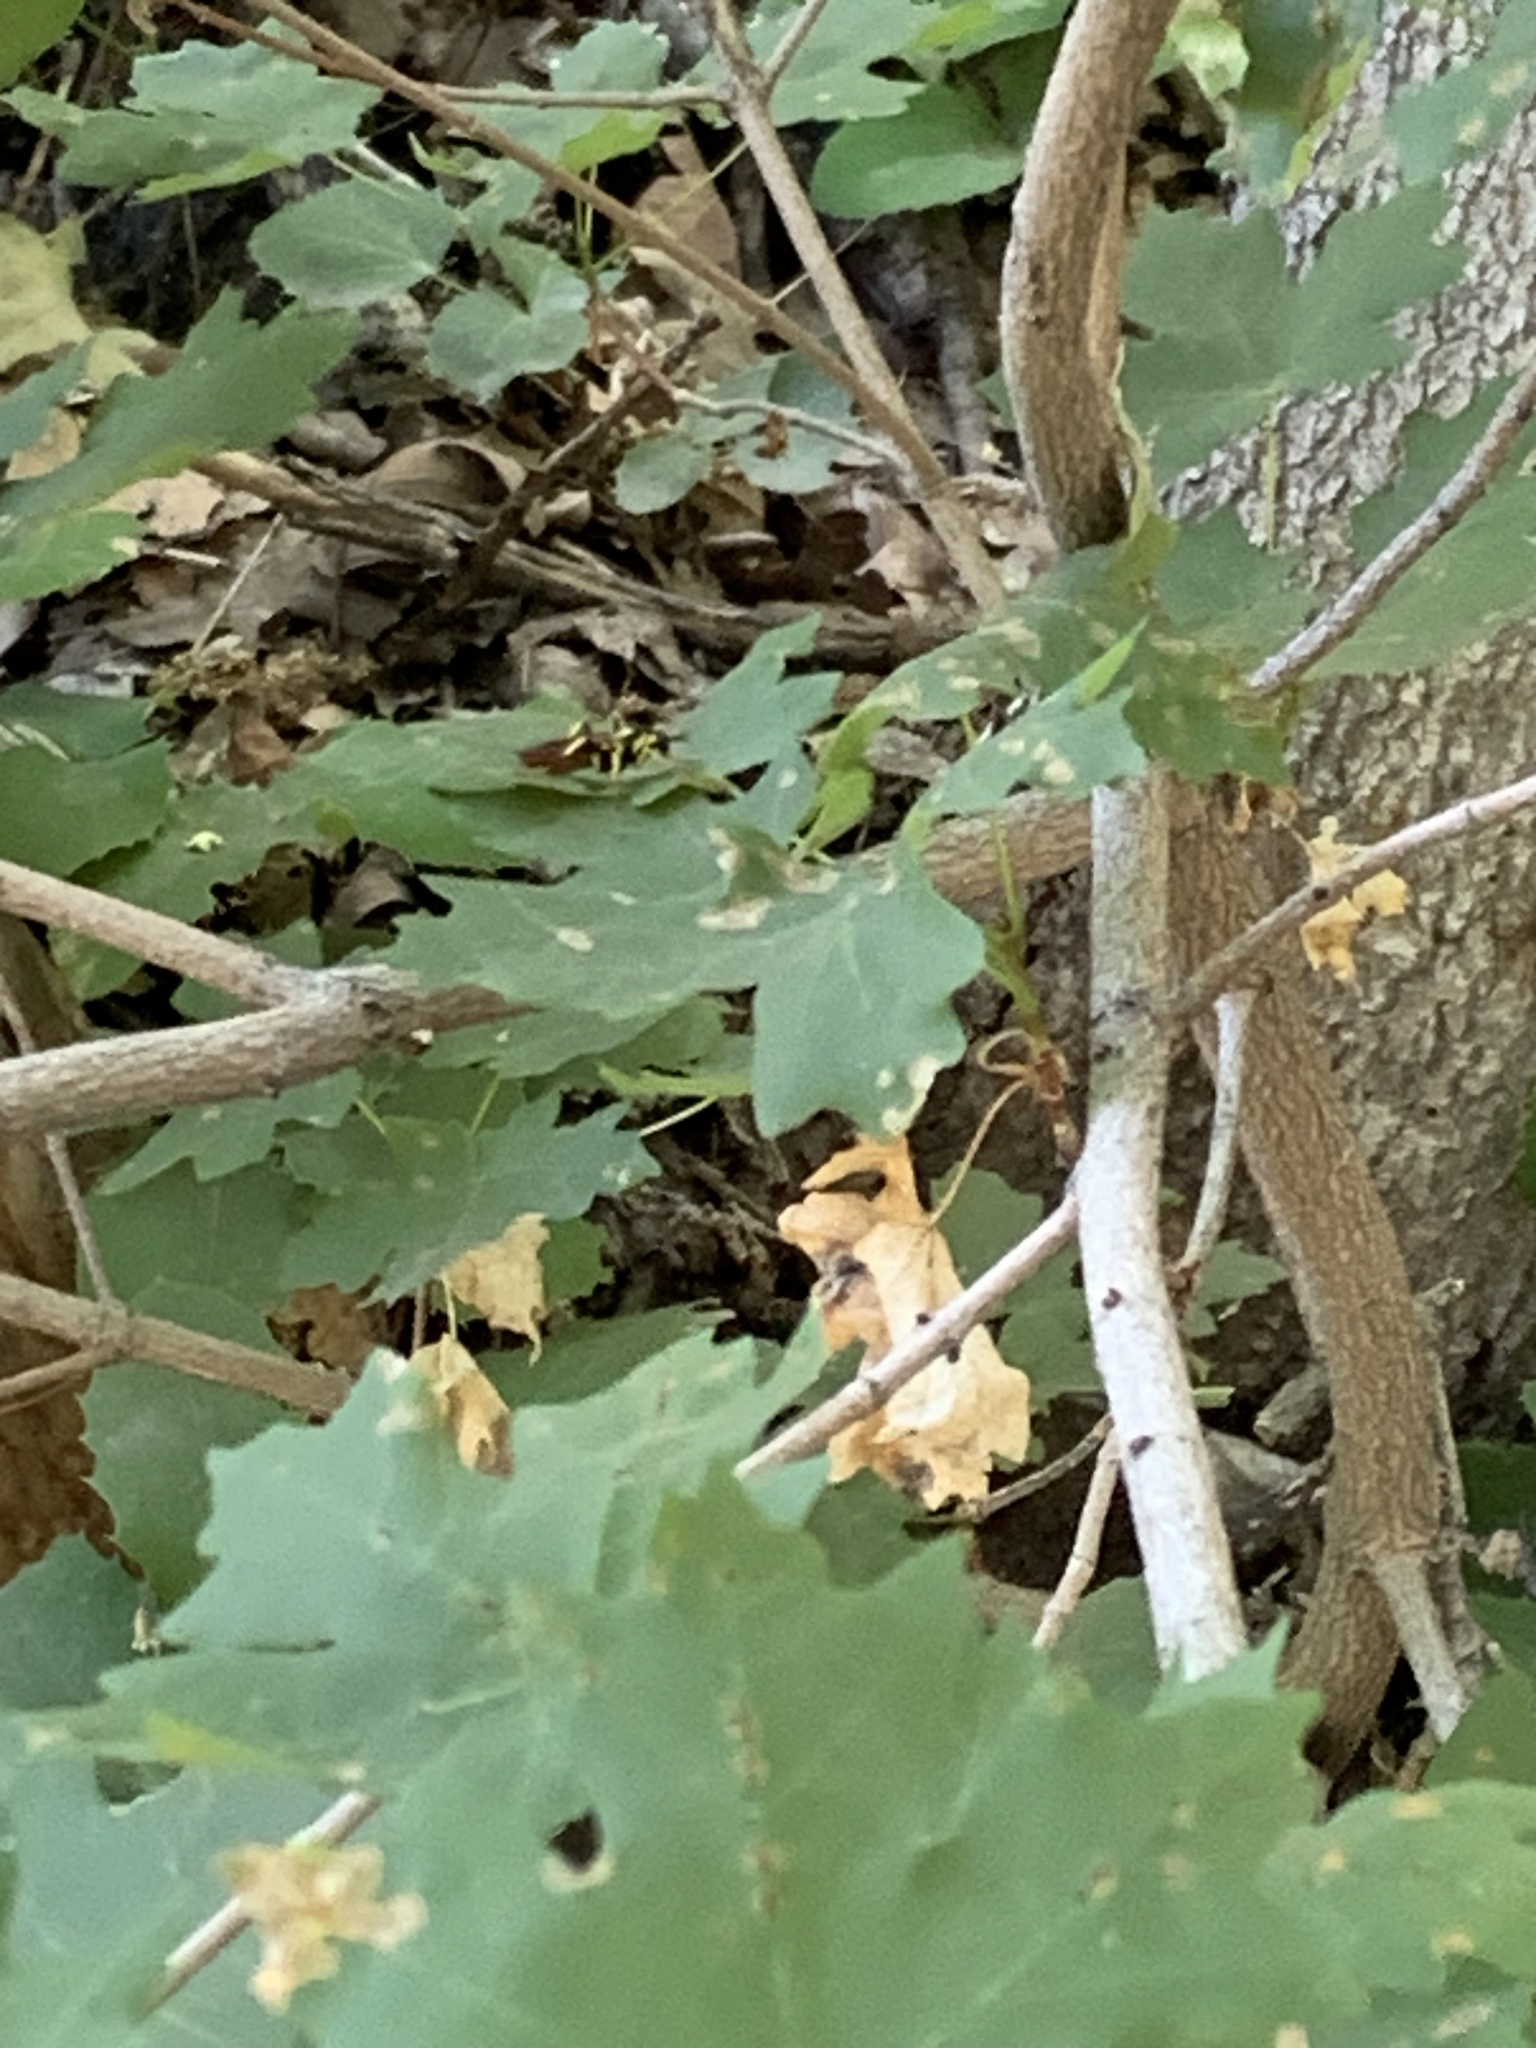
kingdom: Plantae
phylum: Tracheophyta
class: Magnoliopsida
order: Sapindales
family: Sapindaceae
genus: Acer
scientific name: Acer grandidentatum
